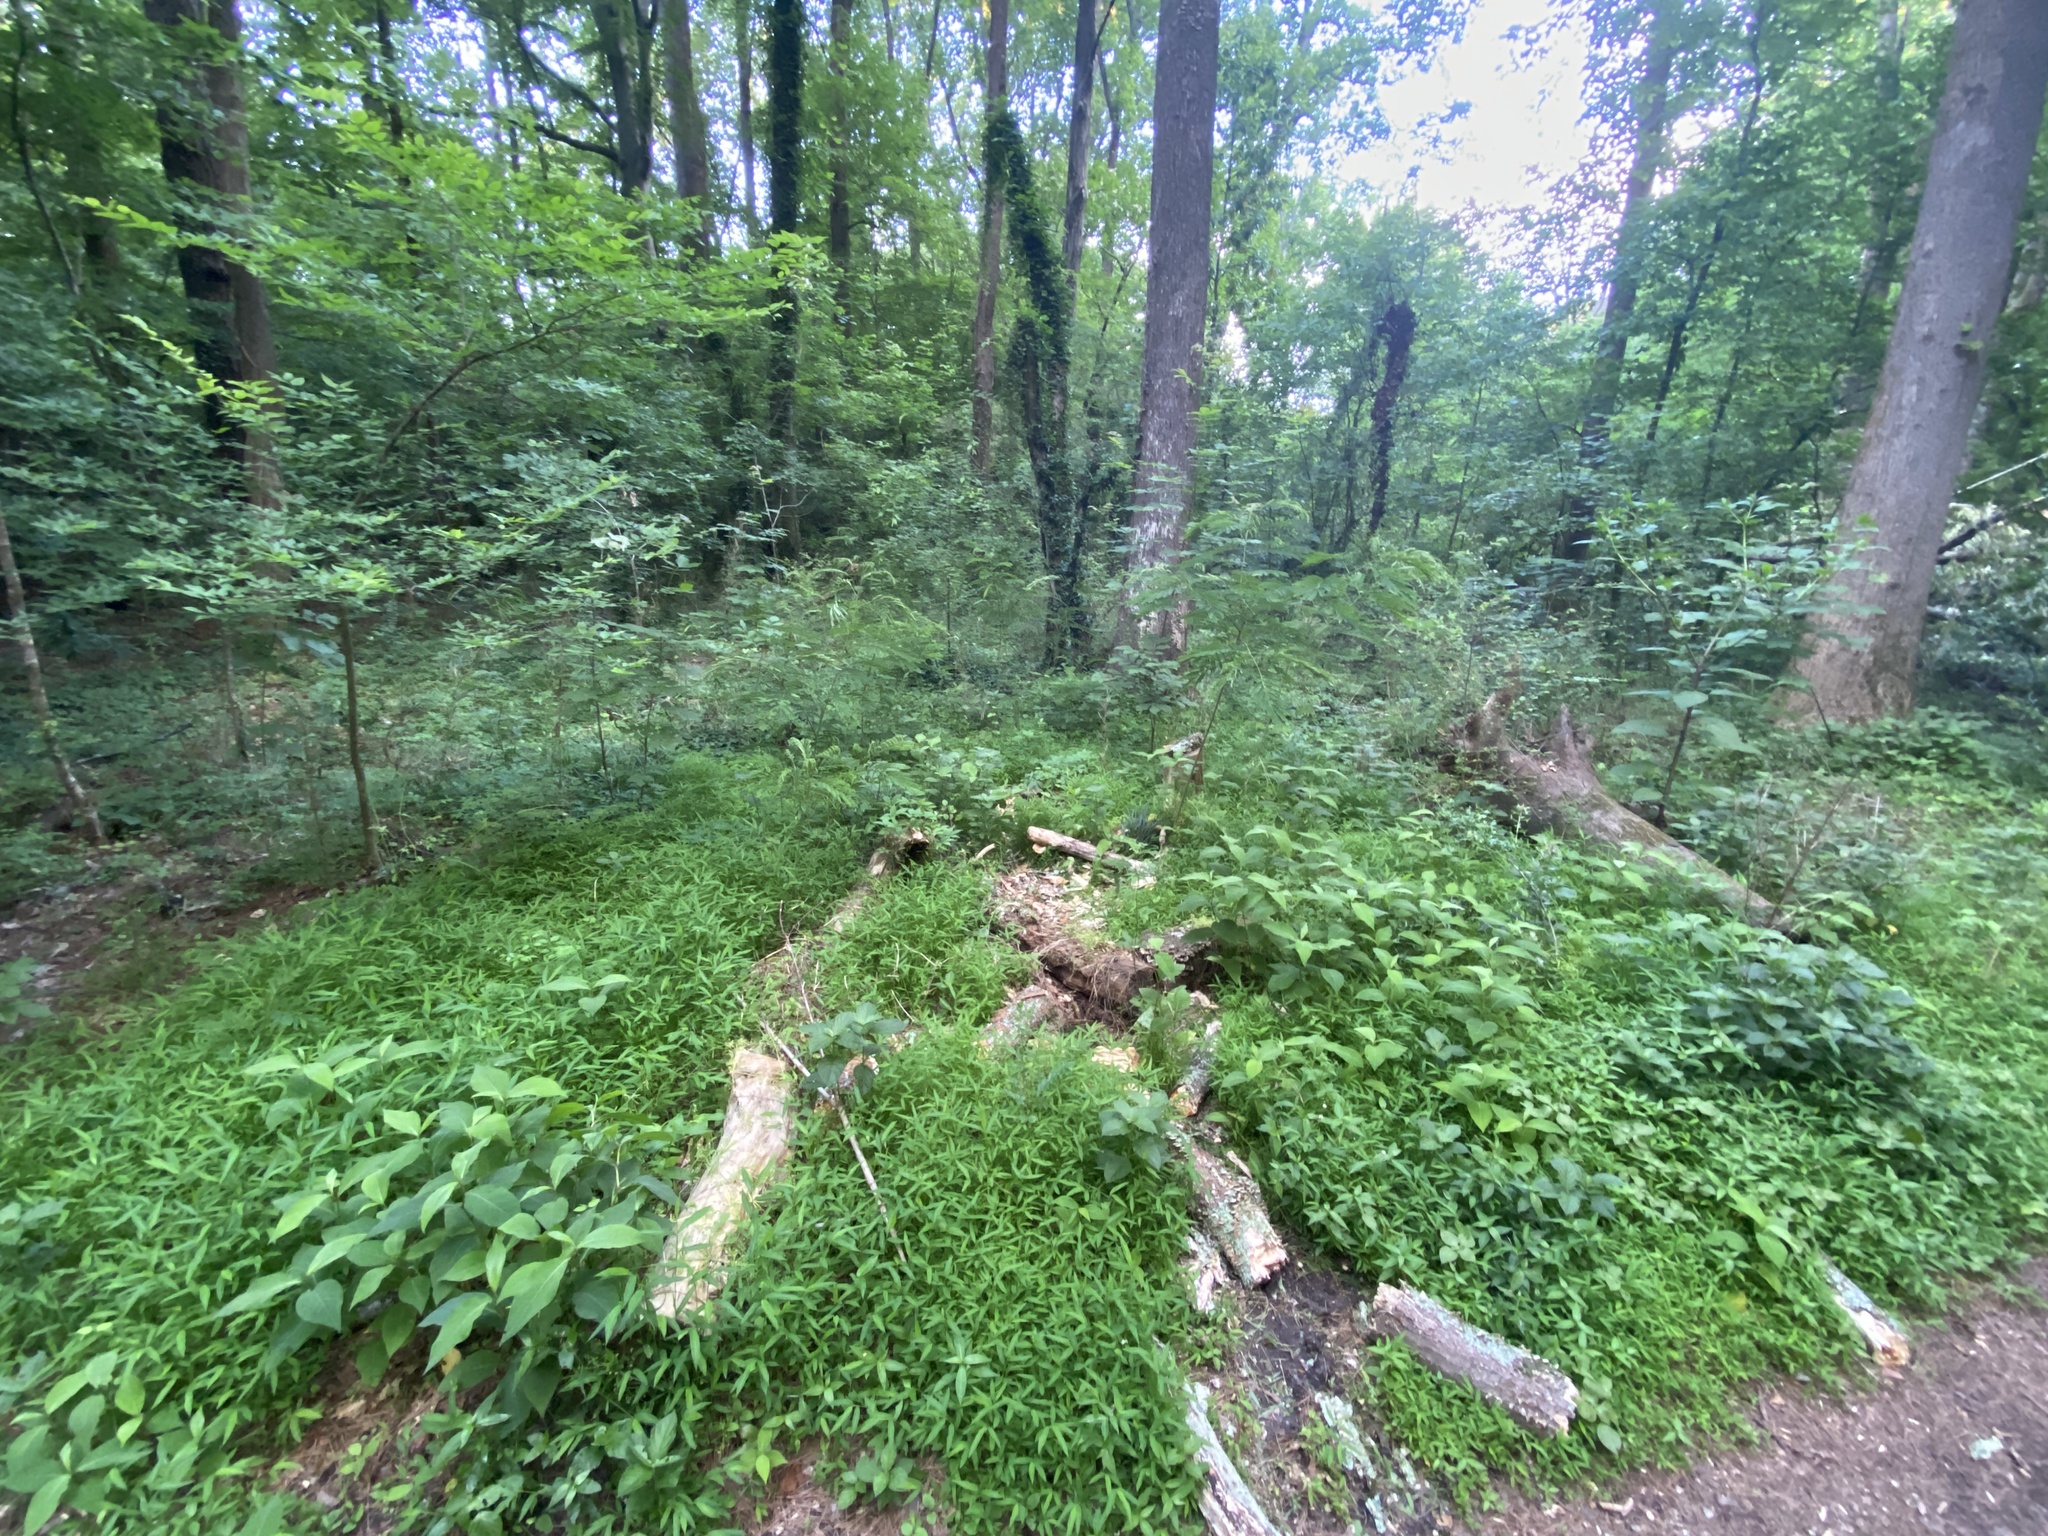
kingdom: Plantae
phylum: Tracheophyta
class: Liliopsida
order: Poales
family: Poaceae
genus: Microstegium
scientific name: Microstegium vimineum
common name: Japanese stiltgrass
